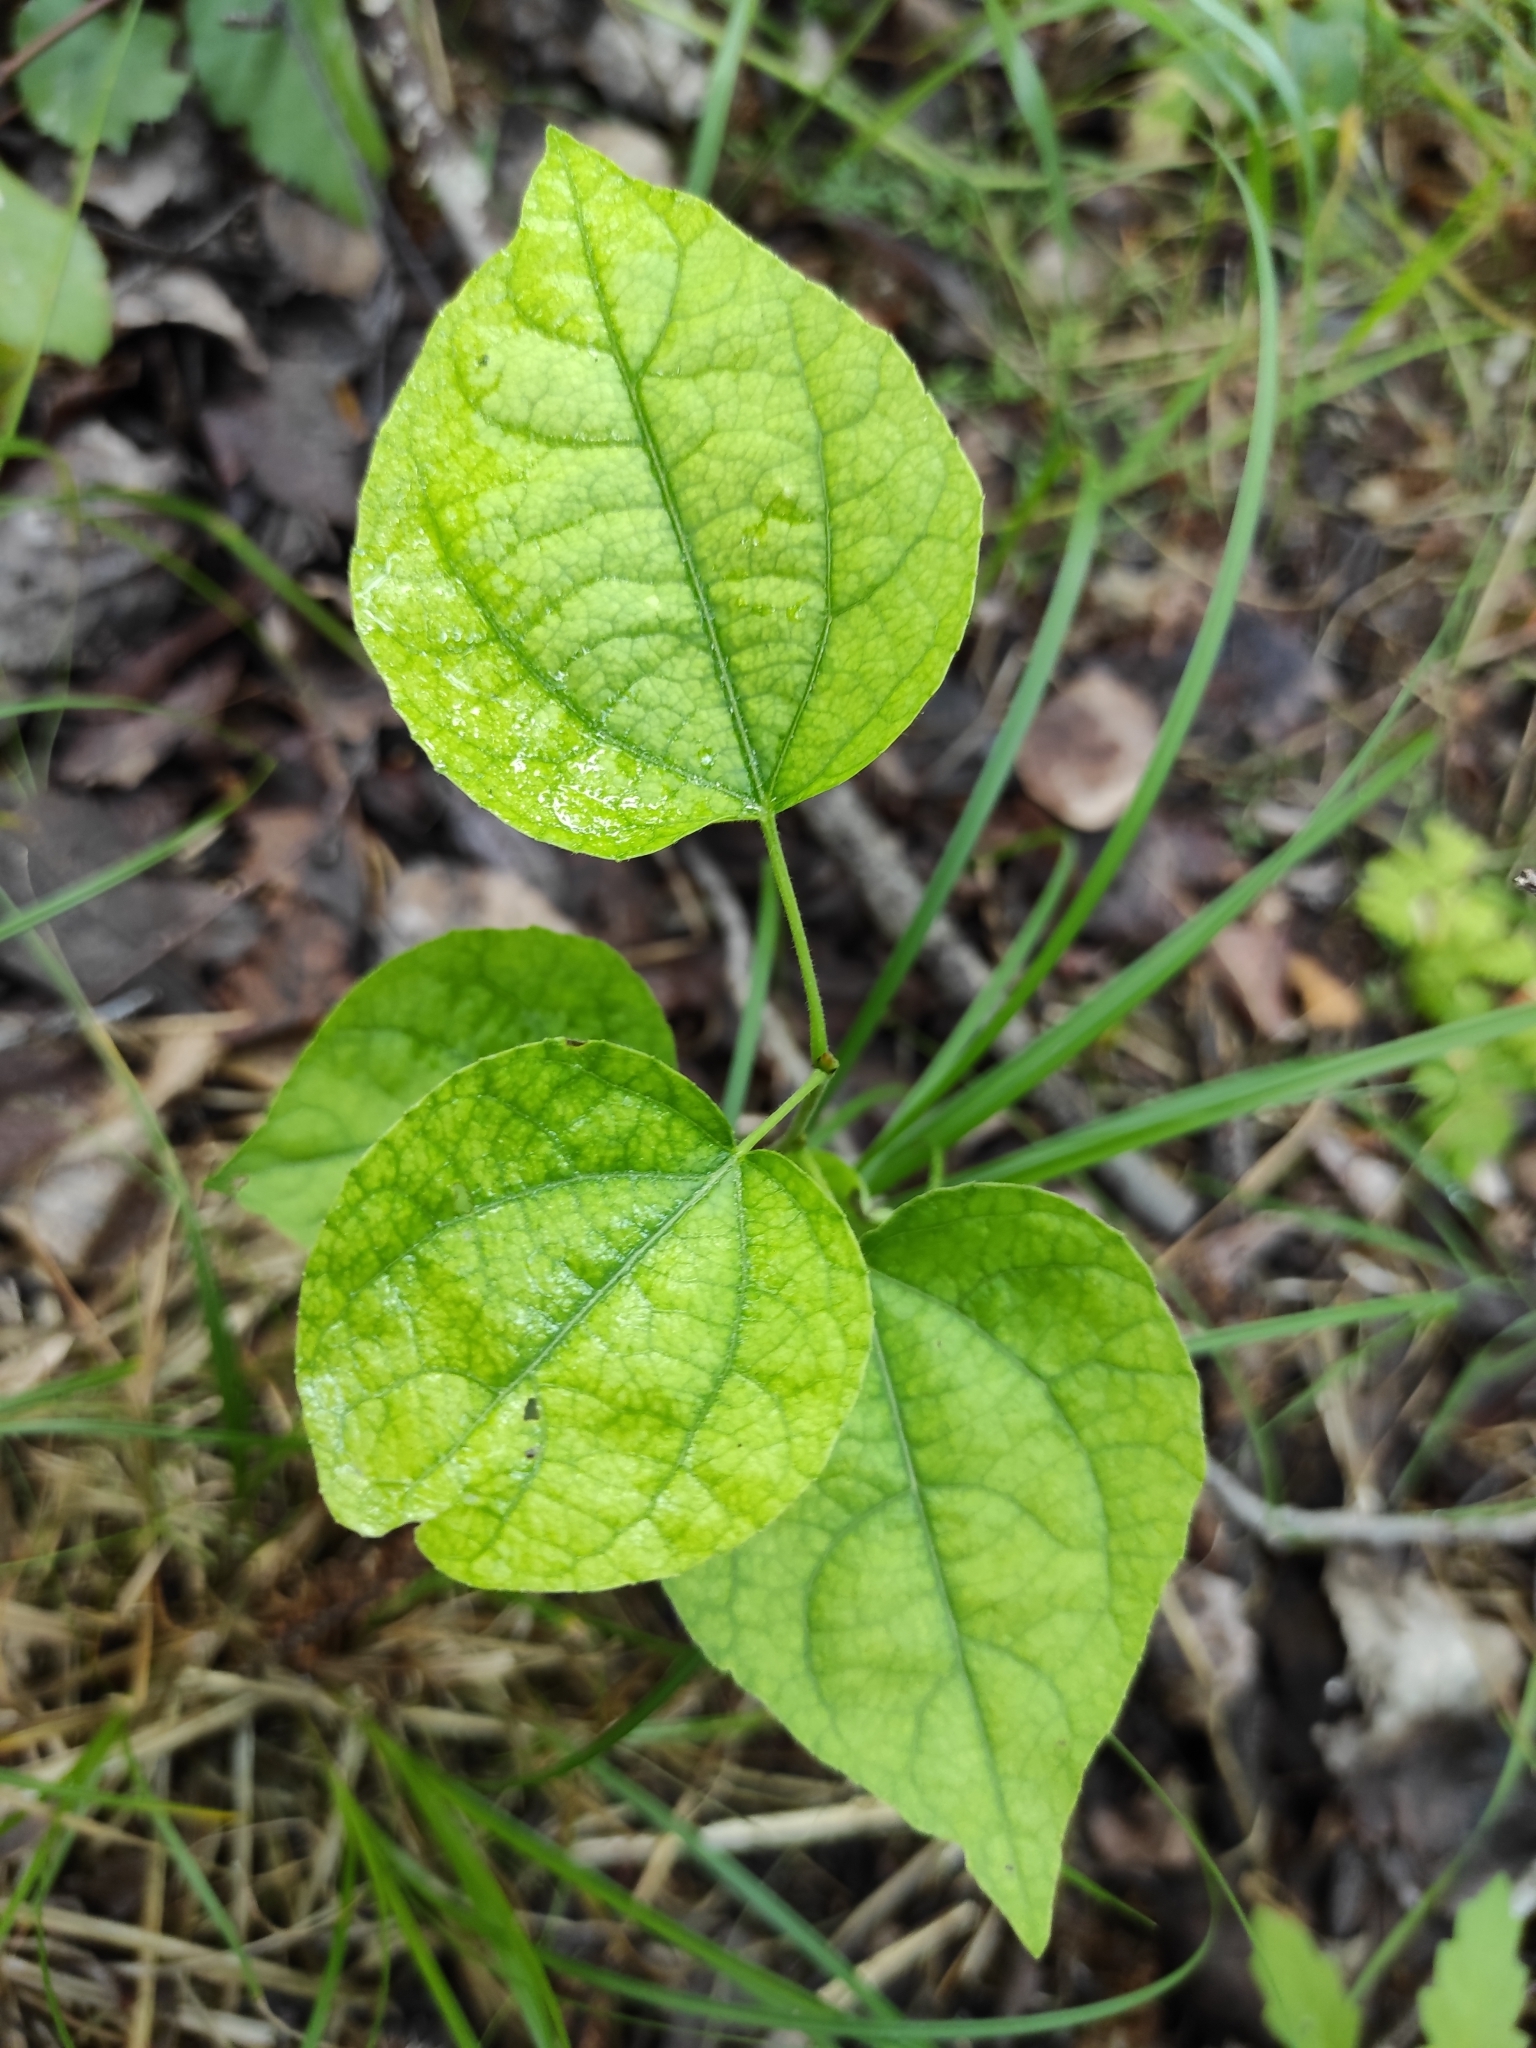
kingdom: Plantae
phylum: Tracheophyta
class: Magnoliopsida
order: Malpighiales
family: Salicaceae
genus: Populus
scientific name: Populus tremula
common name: European aspen
